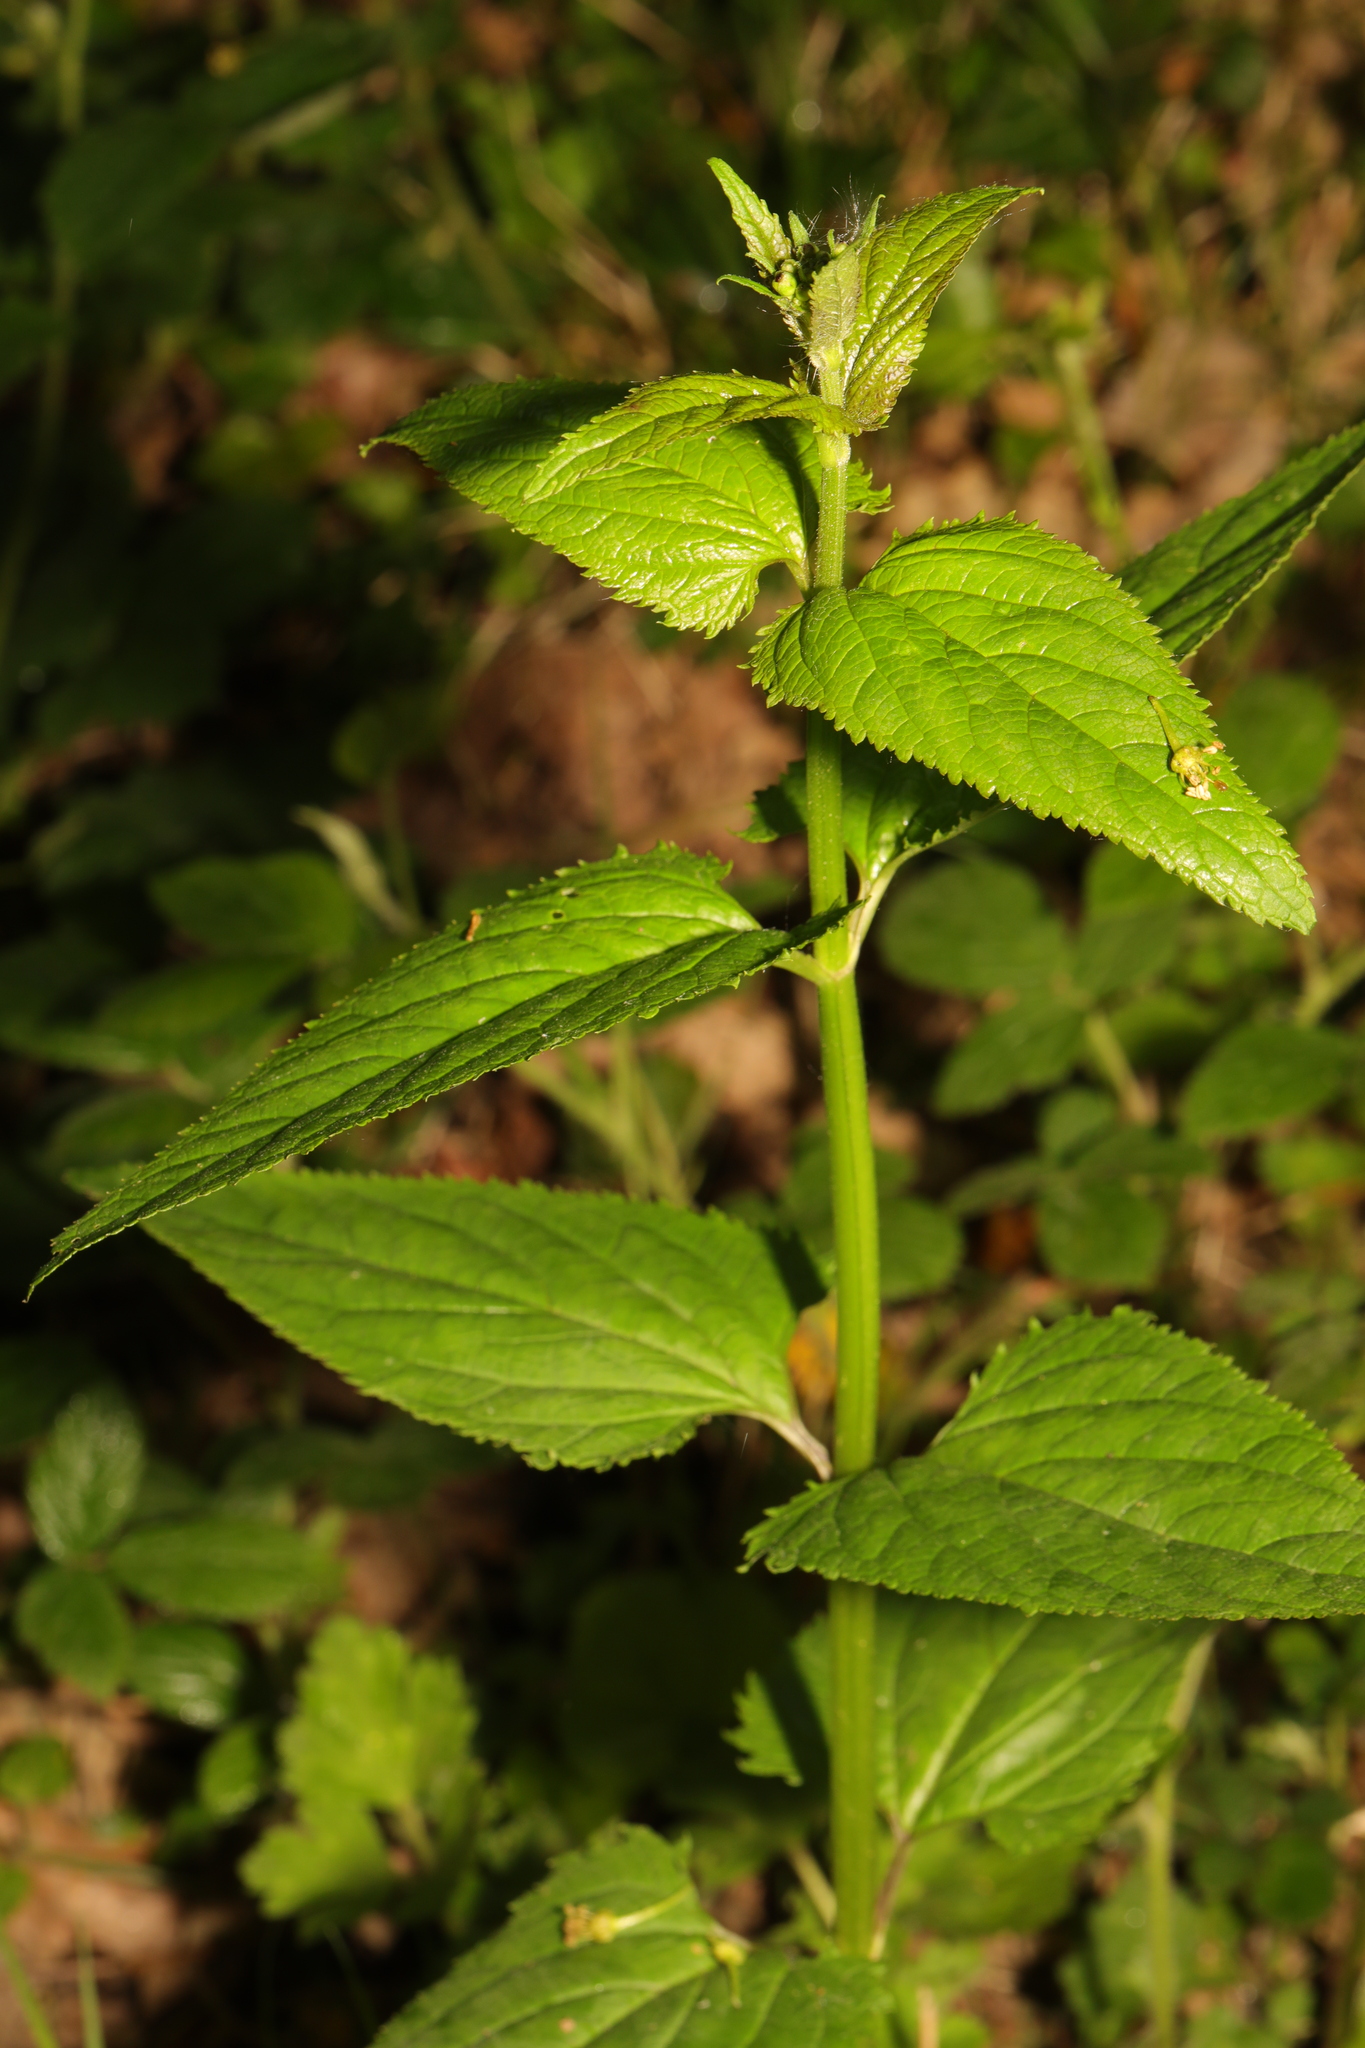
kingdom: Plantae
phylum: Tracheophyta
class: Magnoliopsida
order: Lamiales
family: Scrophulariaceae
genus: Scrophularia
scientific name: Scrophularia nodosa
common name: Common figwort
